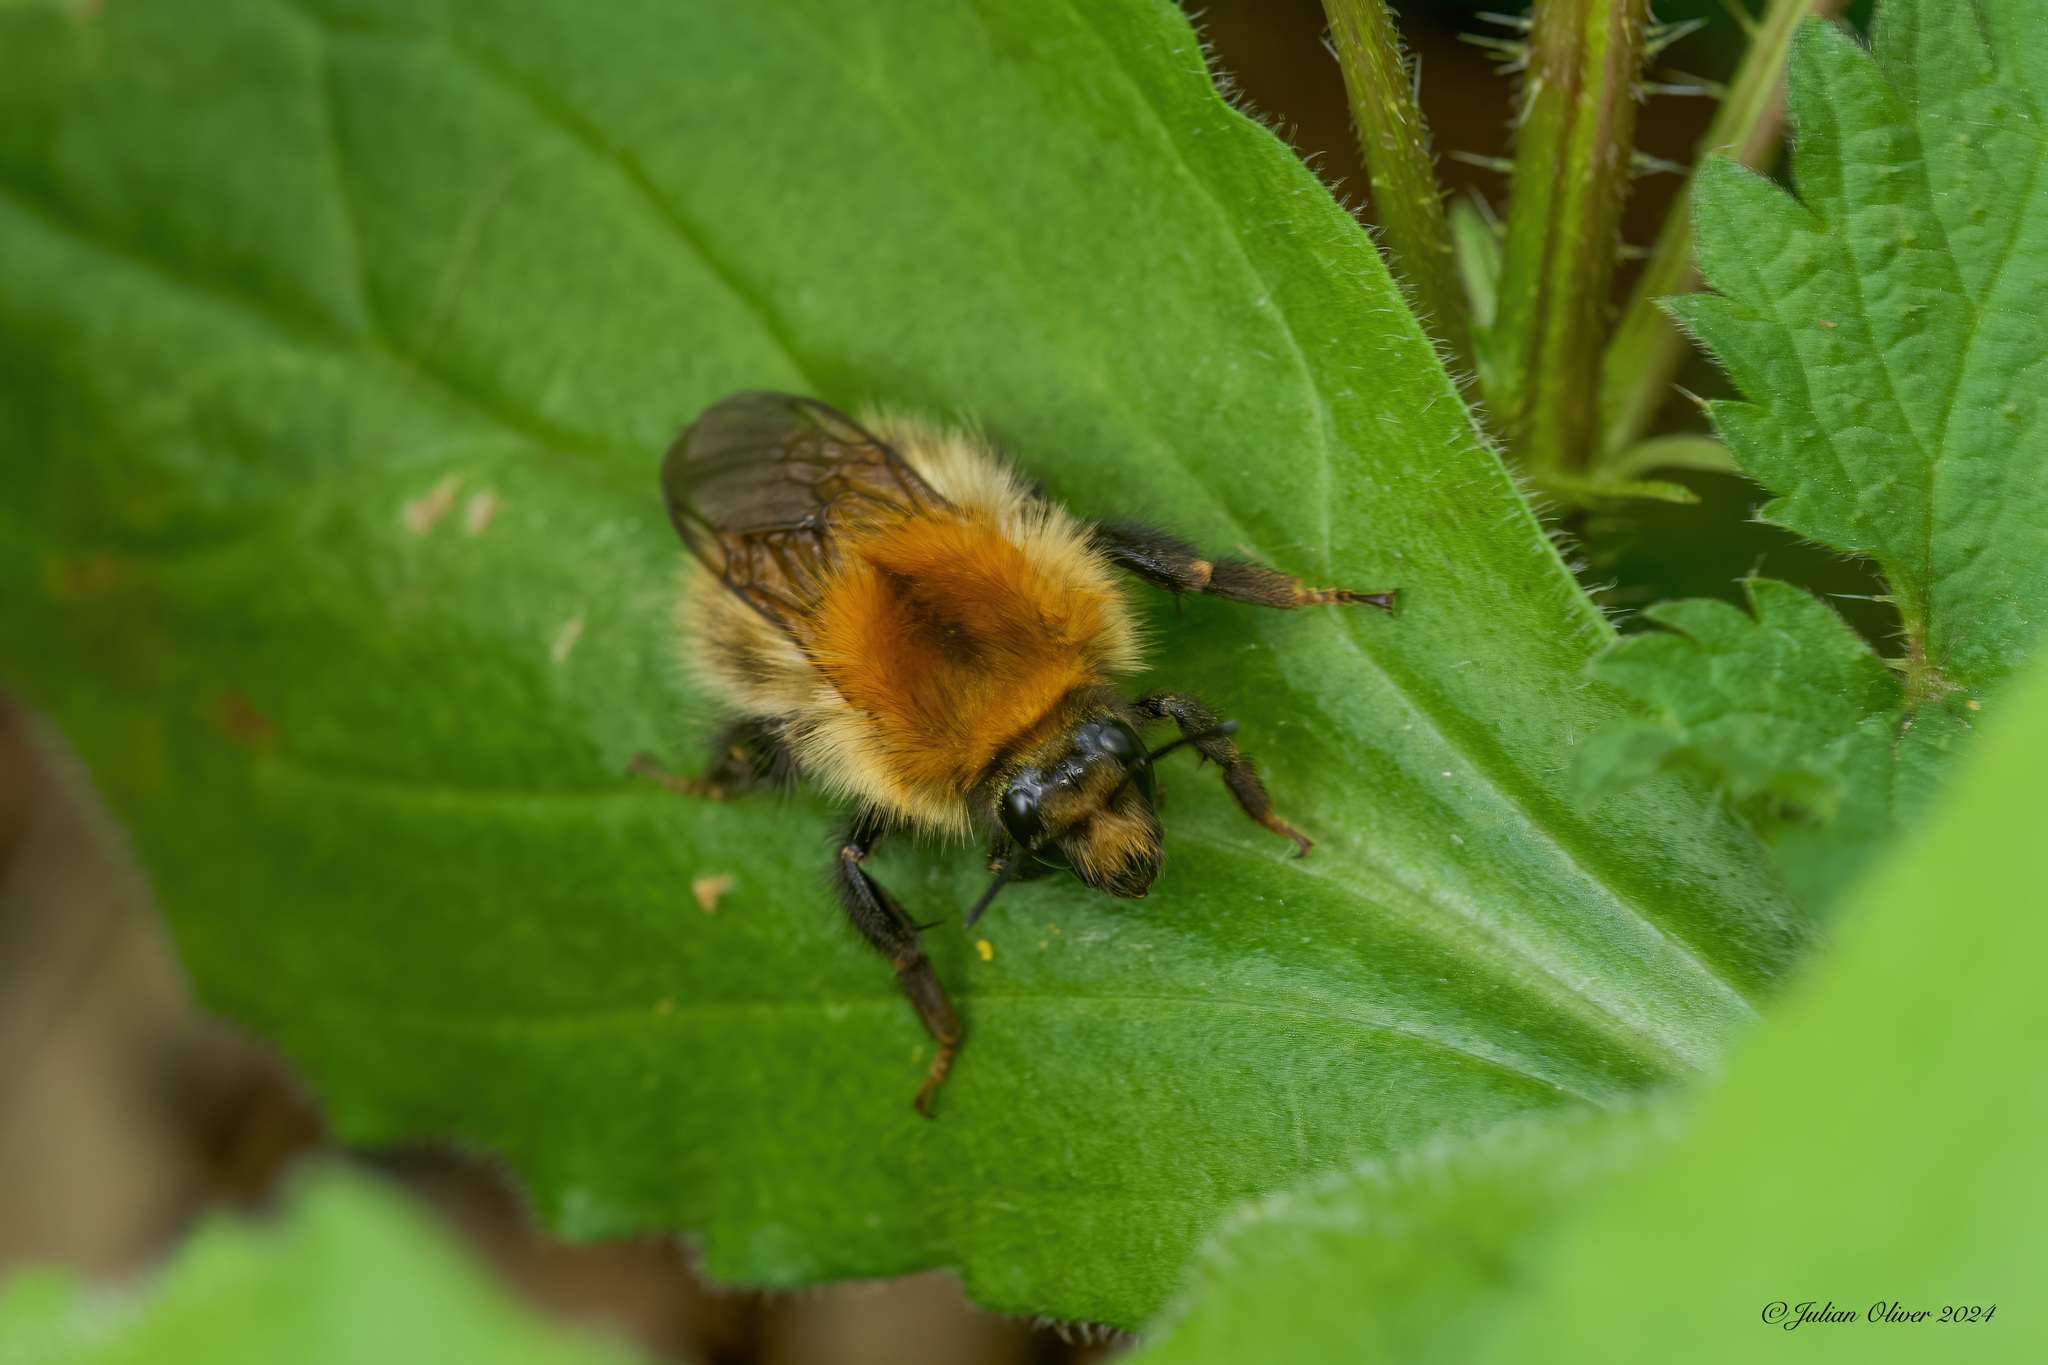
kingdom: Animalia
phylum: Arthropoda
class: Insecta
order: Hymenoptera
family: Apidae
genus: Bombus
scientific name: Bombus pascuorum
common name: Common carder bee
